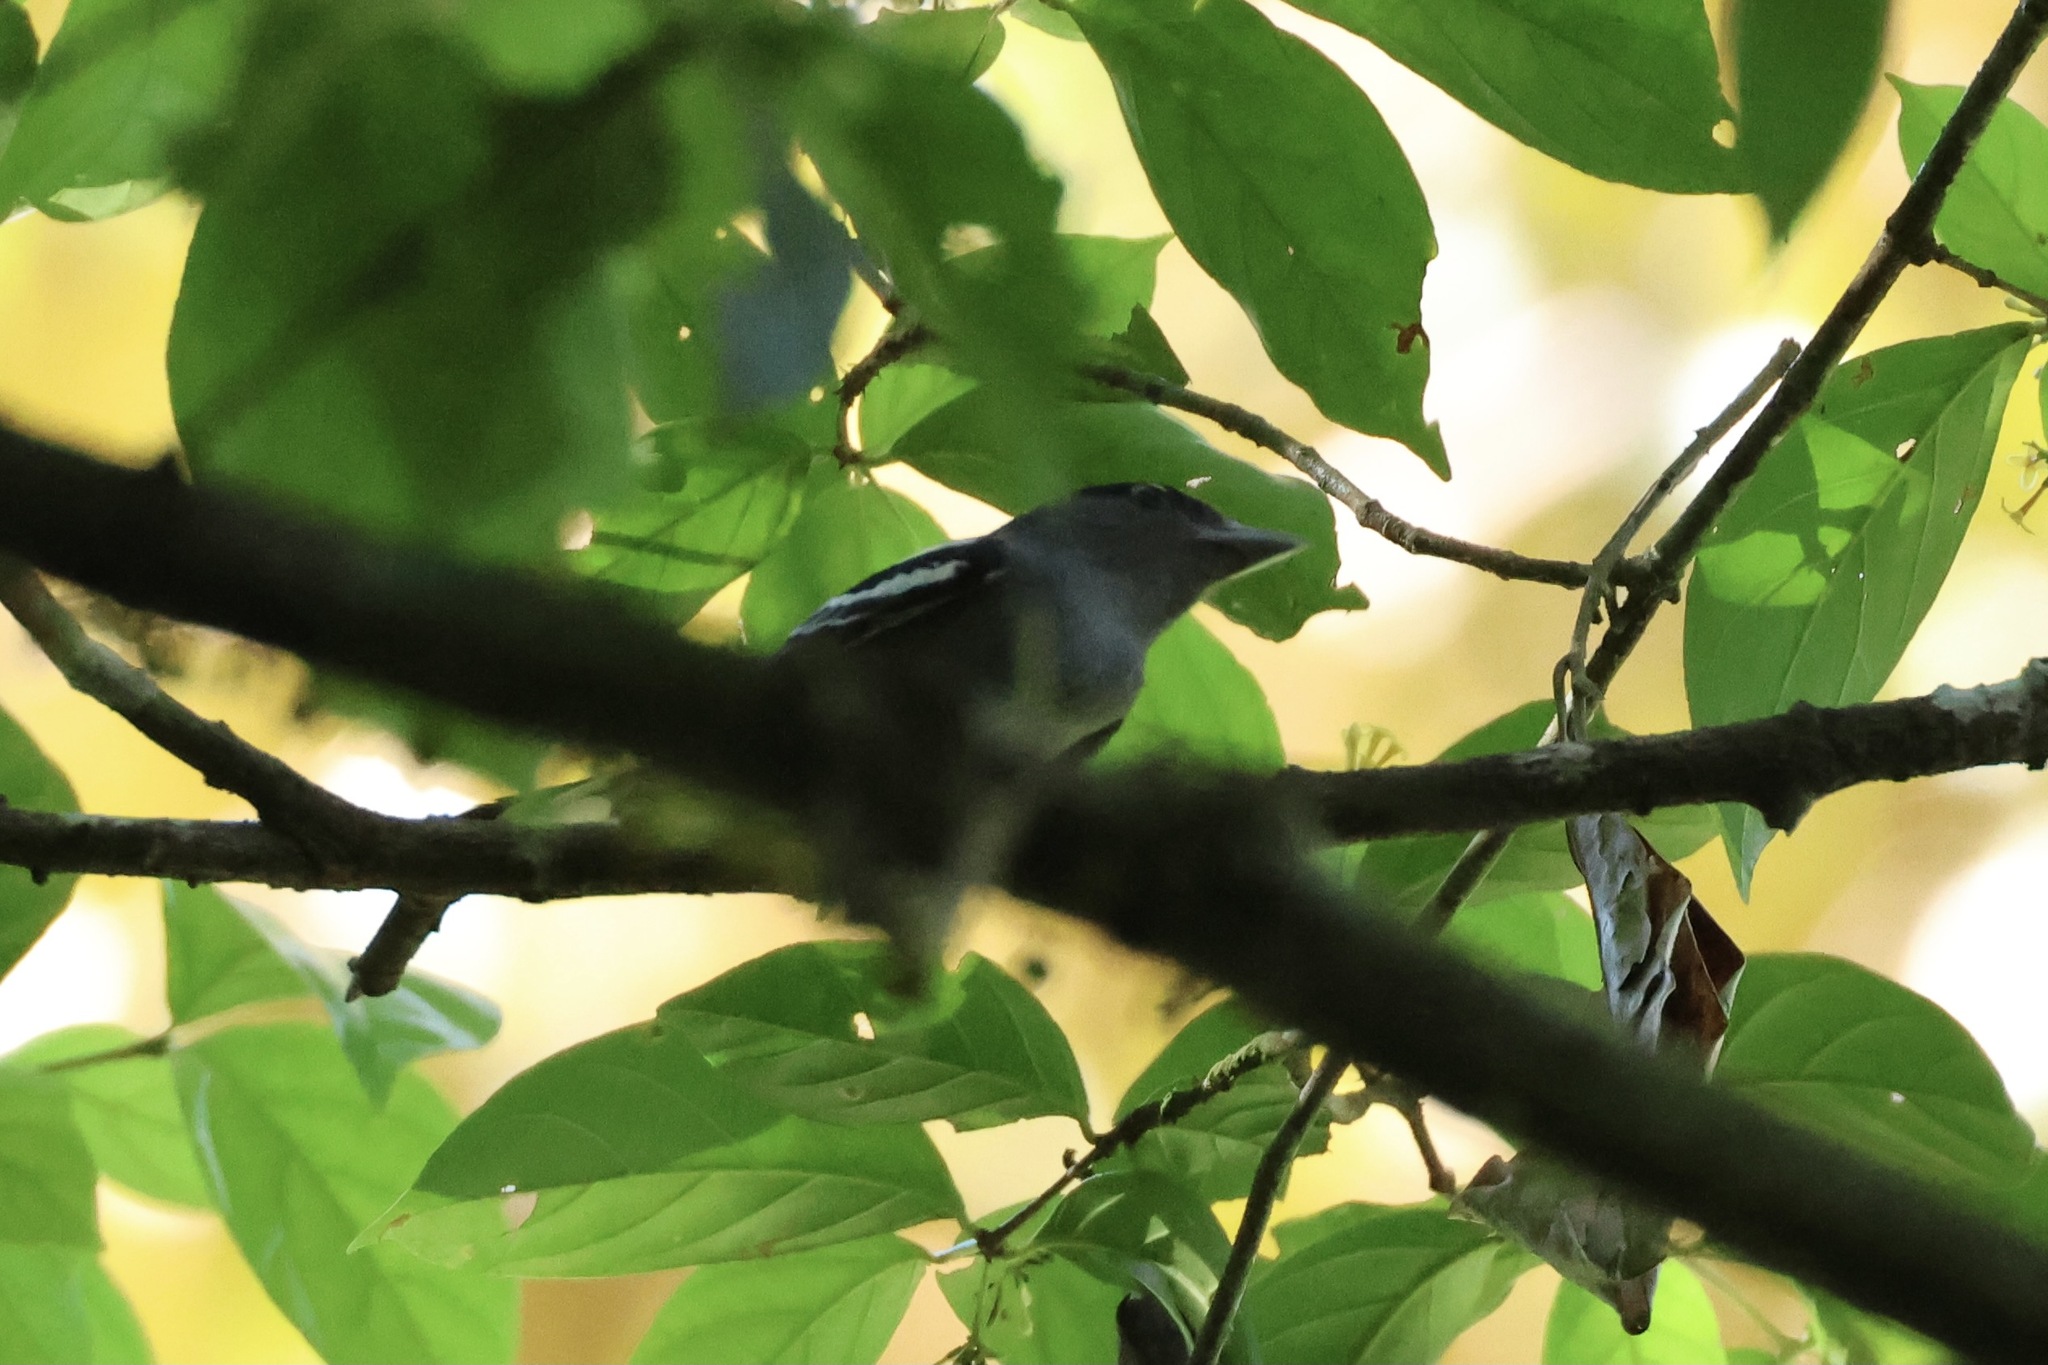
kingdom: Animalia
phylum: Chordata
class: Aves
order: Passeriformes
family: Cotingidae
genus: Pachyramphus
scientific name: Pachyramphus polychopterus
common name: White-winged becard
